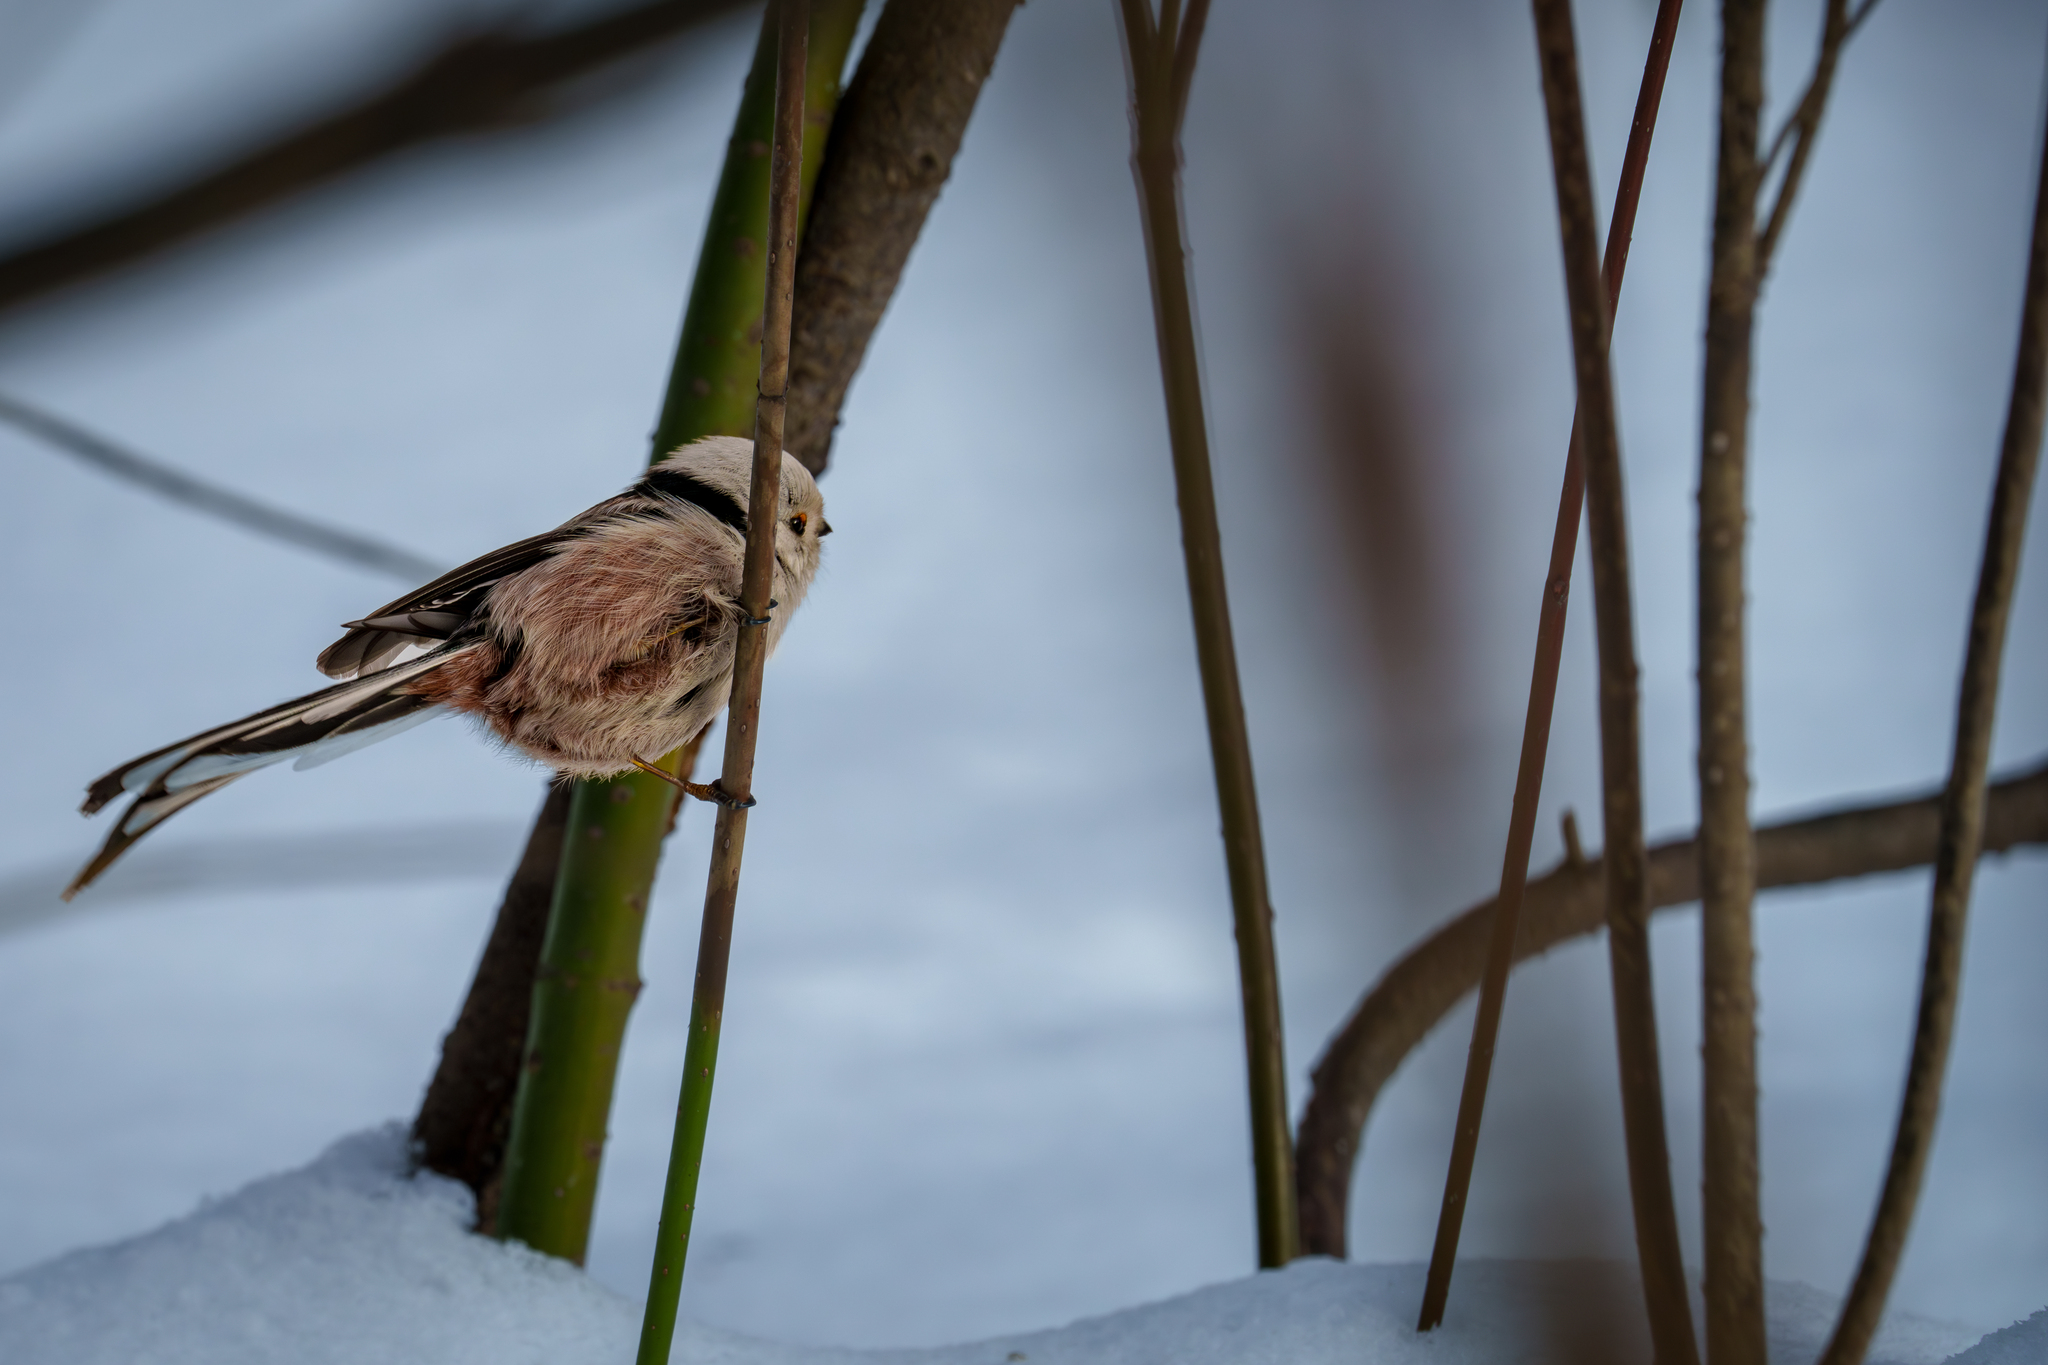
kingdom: Animalia
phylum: Chordata
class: Aves
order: Passeriformes
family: Aegithalidae
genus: Aegithalos
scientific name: Aegithalos caudatus
